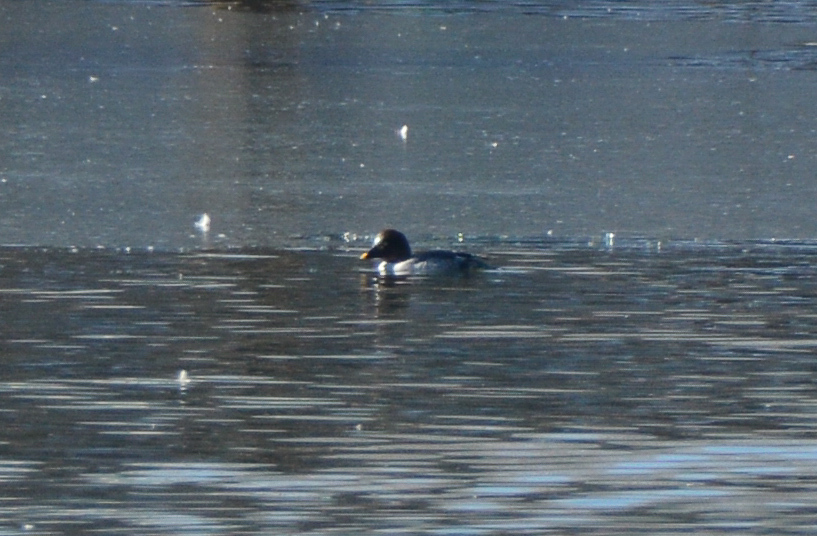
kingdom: Animalia
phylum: Chordata
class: Aves
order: Anseriformes
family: Anatidae
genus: Bucephala
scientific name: Bucephala clangula
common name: Common goldeneye
